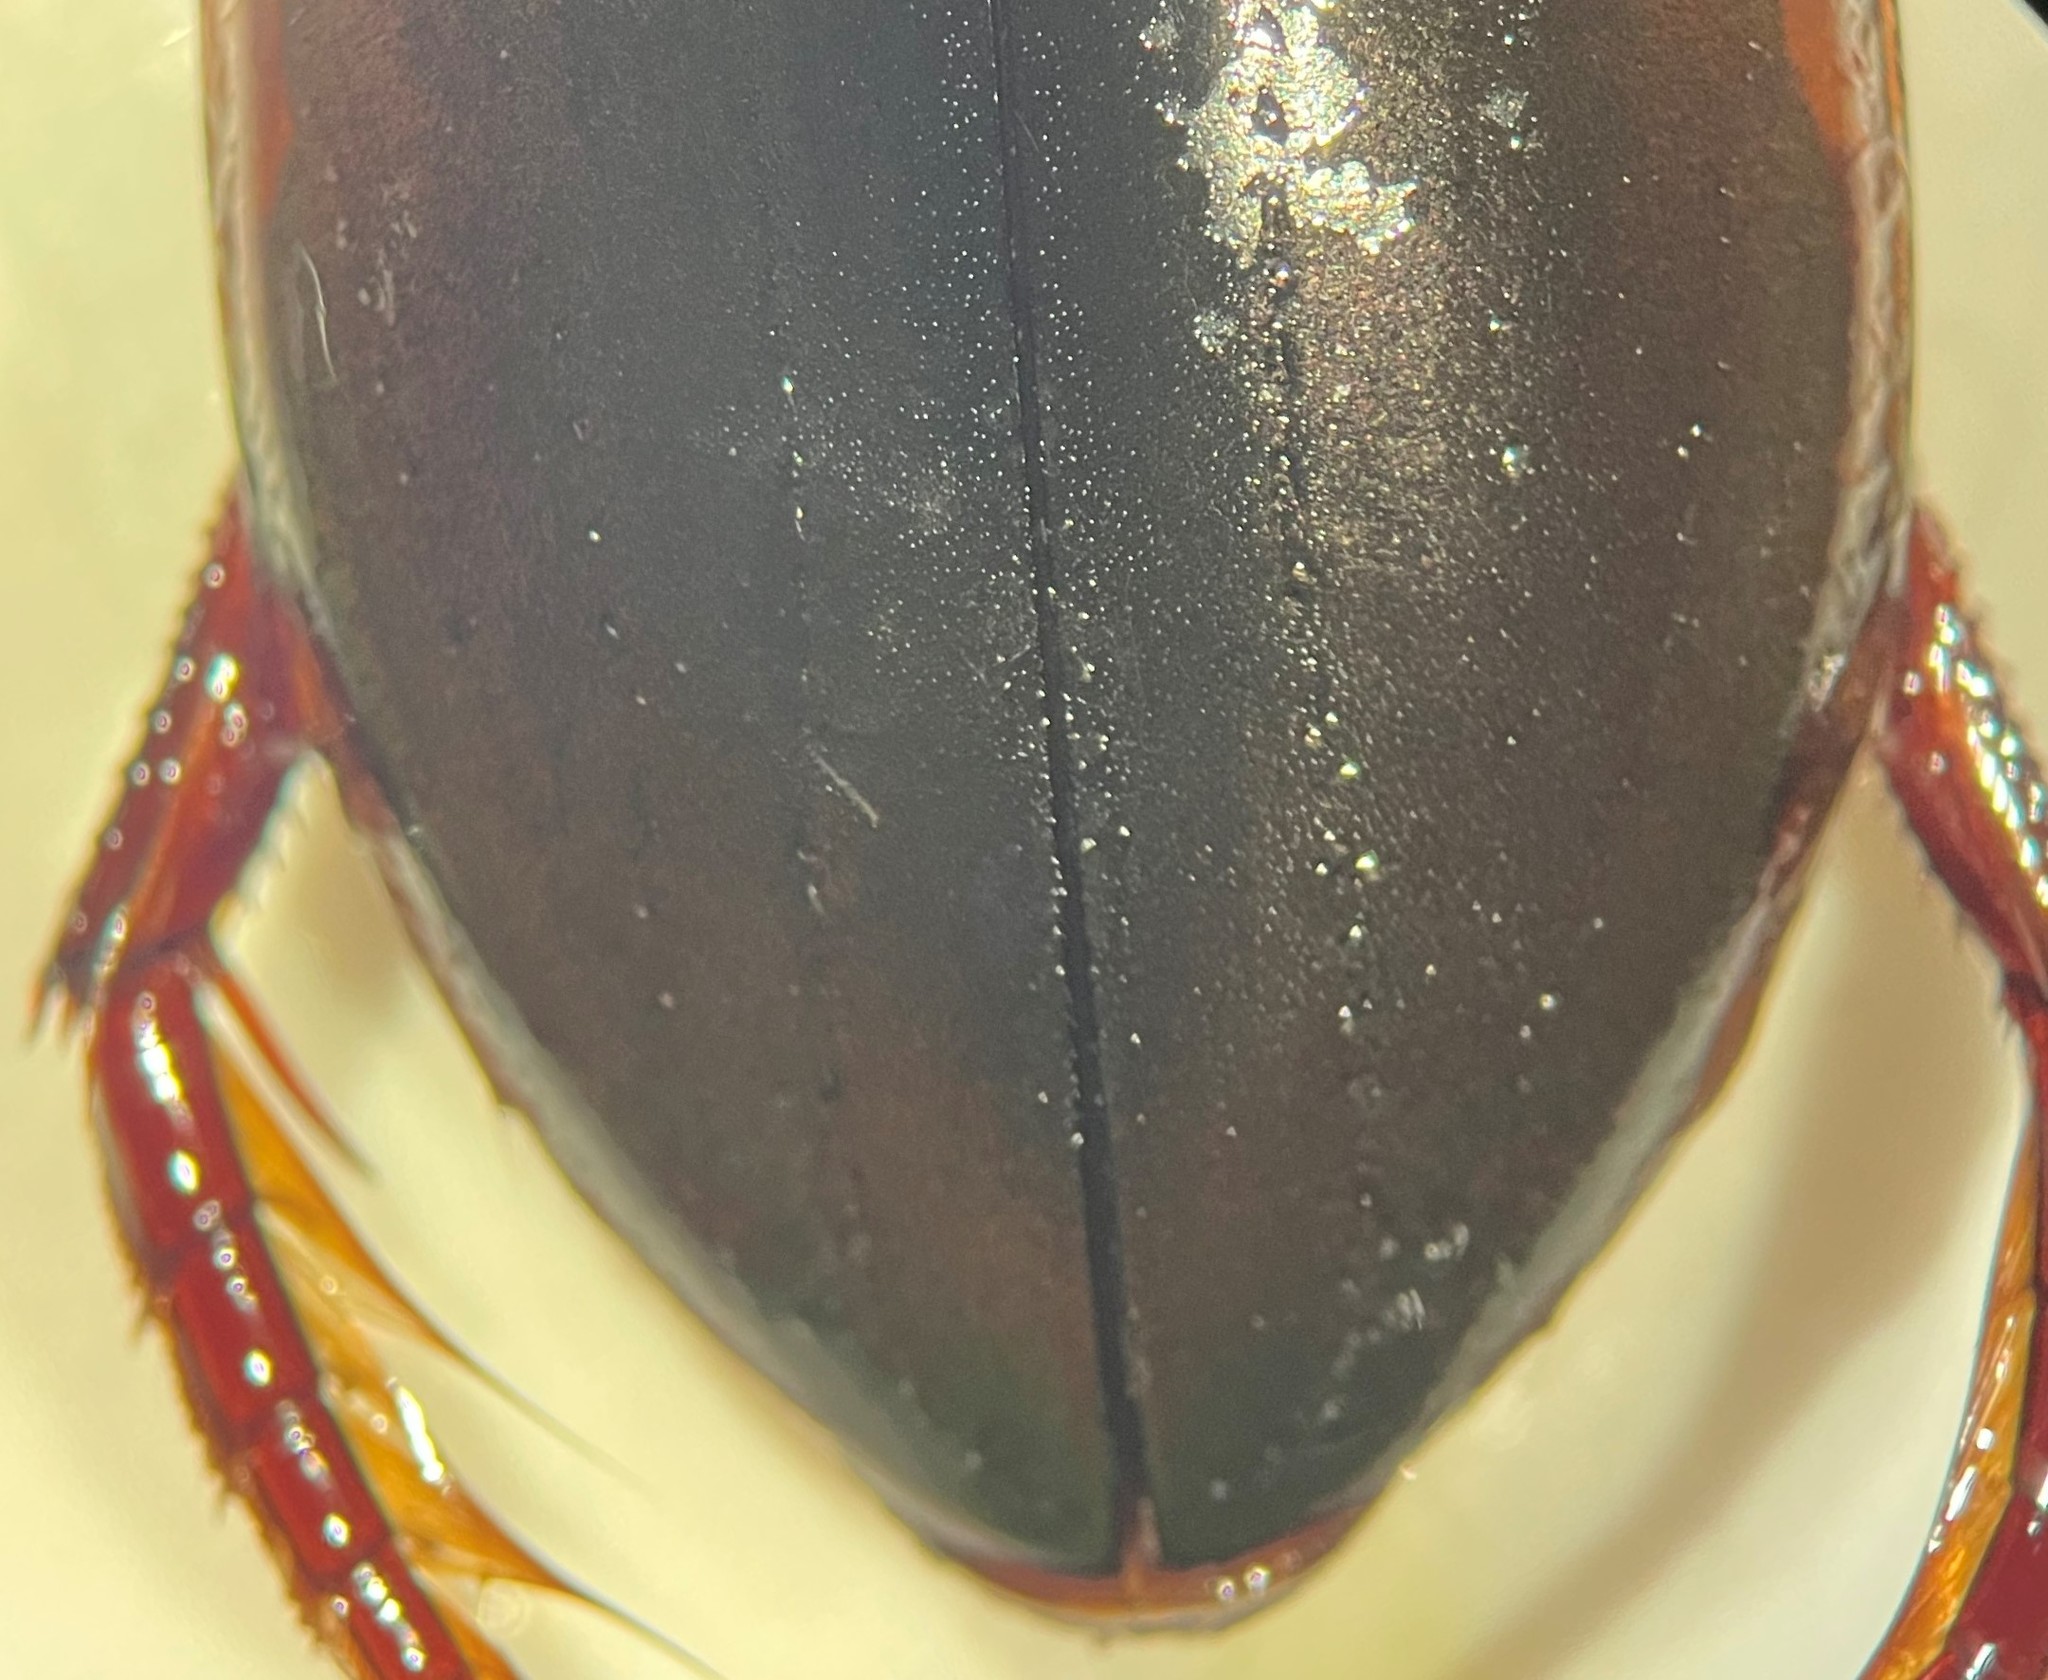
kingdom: Animalia
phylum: Arthropoda
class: Insecta
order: Coleoptera
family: Dytiscidae
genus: Dytiscus
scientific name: Dytiscus carolinus
